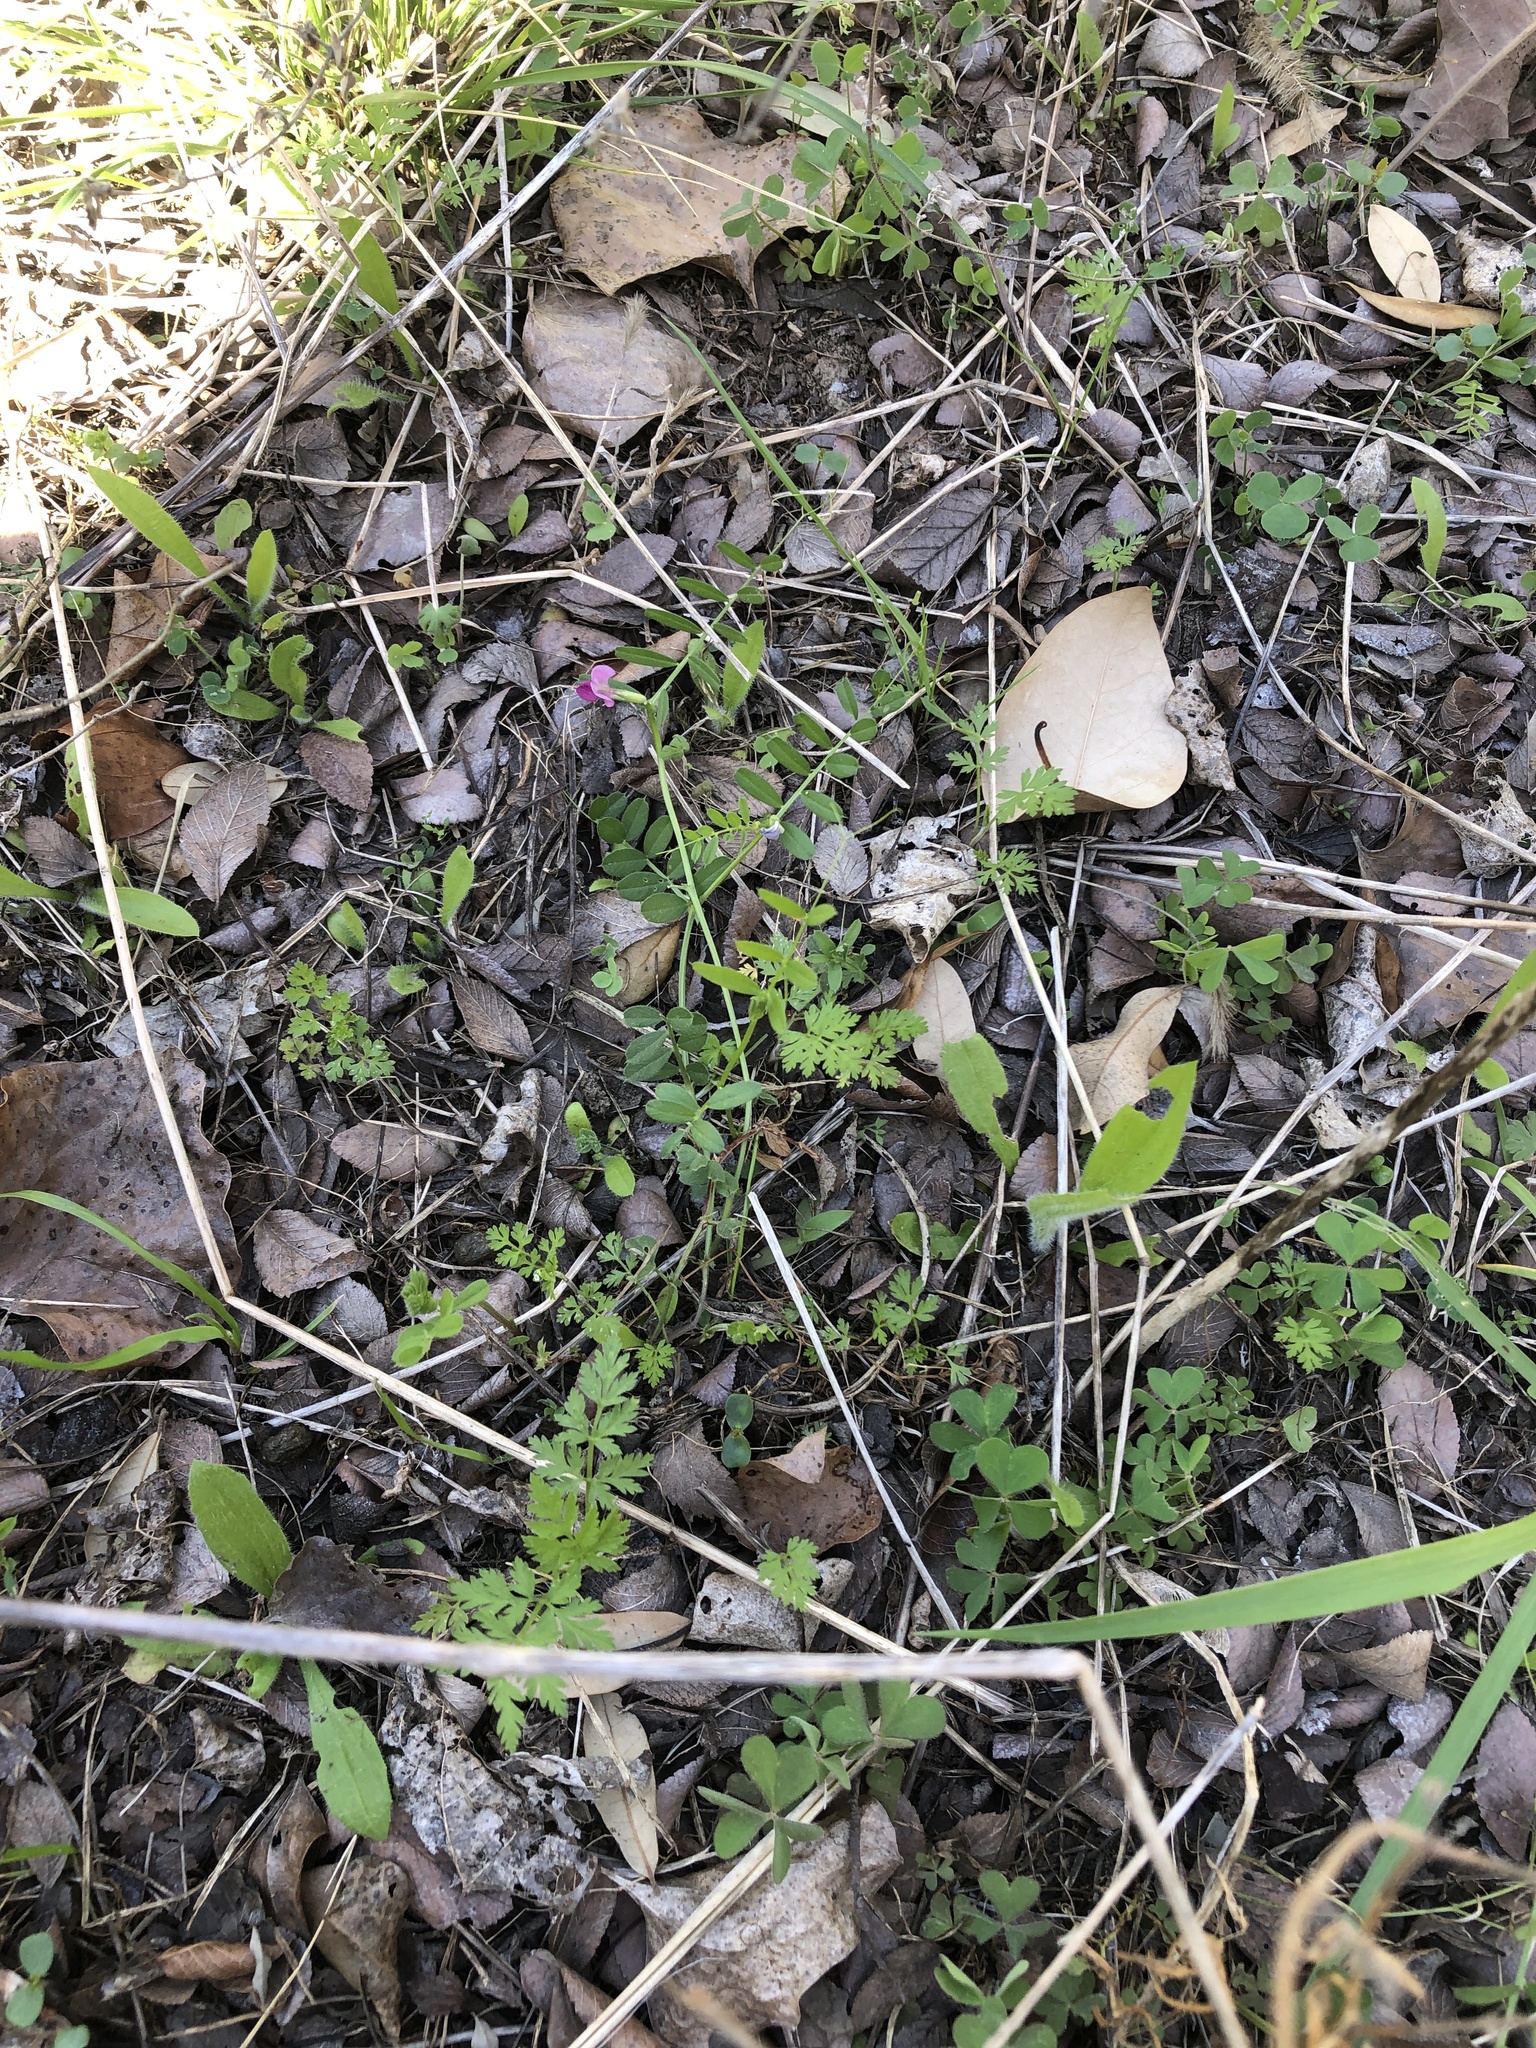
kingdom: Plantae
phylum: Tracheophyta
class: Magnoliopsida
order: Fabales
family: Fabaceae
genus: Vicia
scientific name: Vicia sativa
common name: Garden vetch
